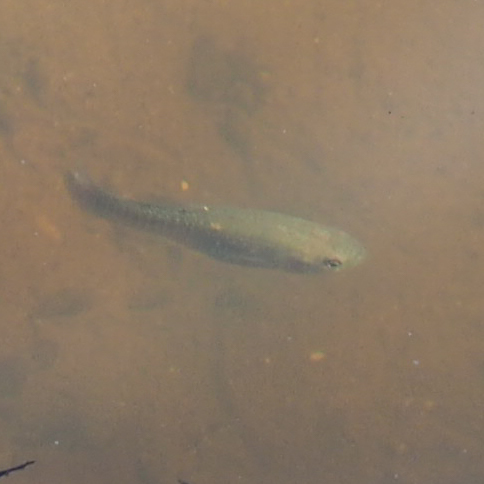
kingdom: Animalia
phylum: Chordata
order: Cyprinodontiformes
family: Fundulidae
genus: Fundulus
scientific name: Fundulus heteroclitus
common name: Mummichog
